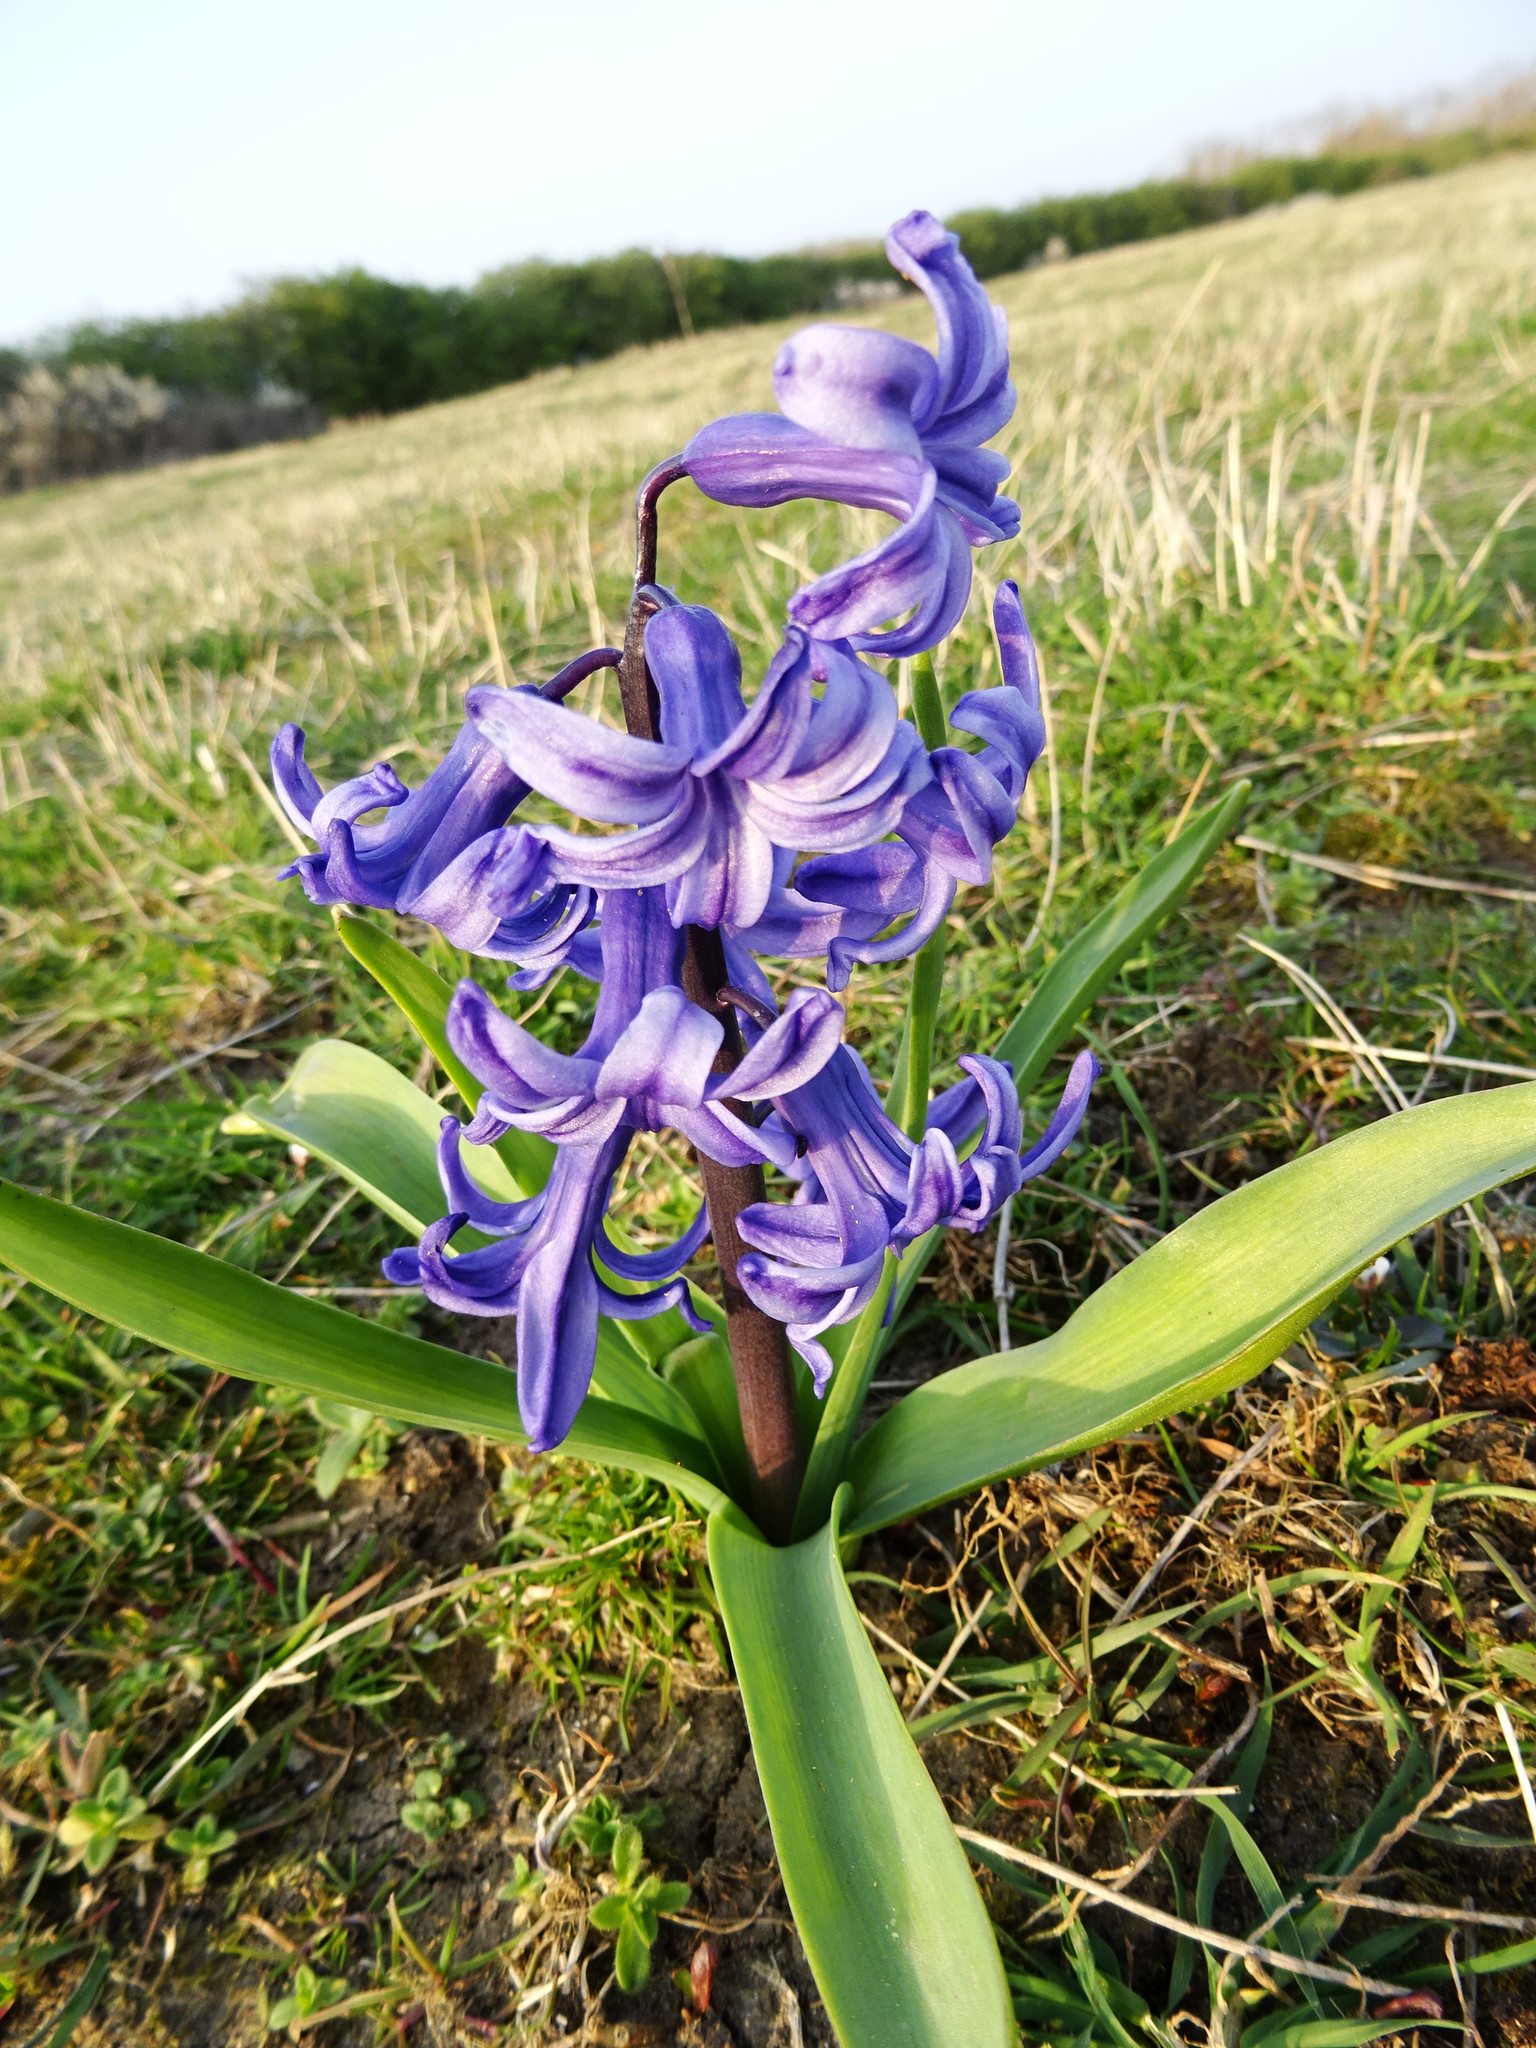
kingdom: Plantae
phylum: Tracheophyta
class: Liliopsida
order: Asparagales
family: Asparagaceae
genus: Hyacinthus
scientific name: Hyacinthus orientalis
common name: Hyacinth
